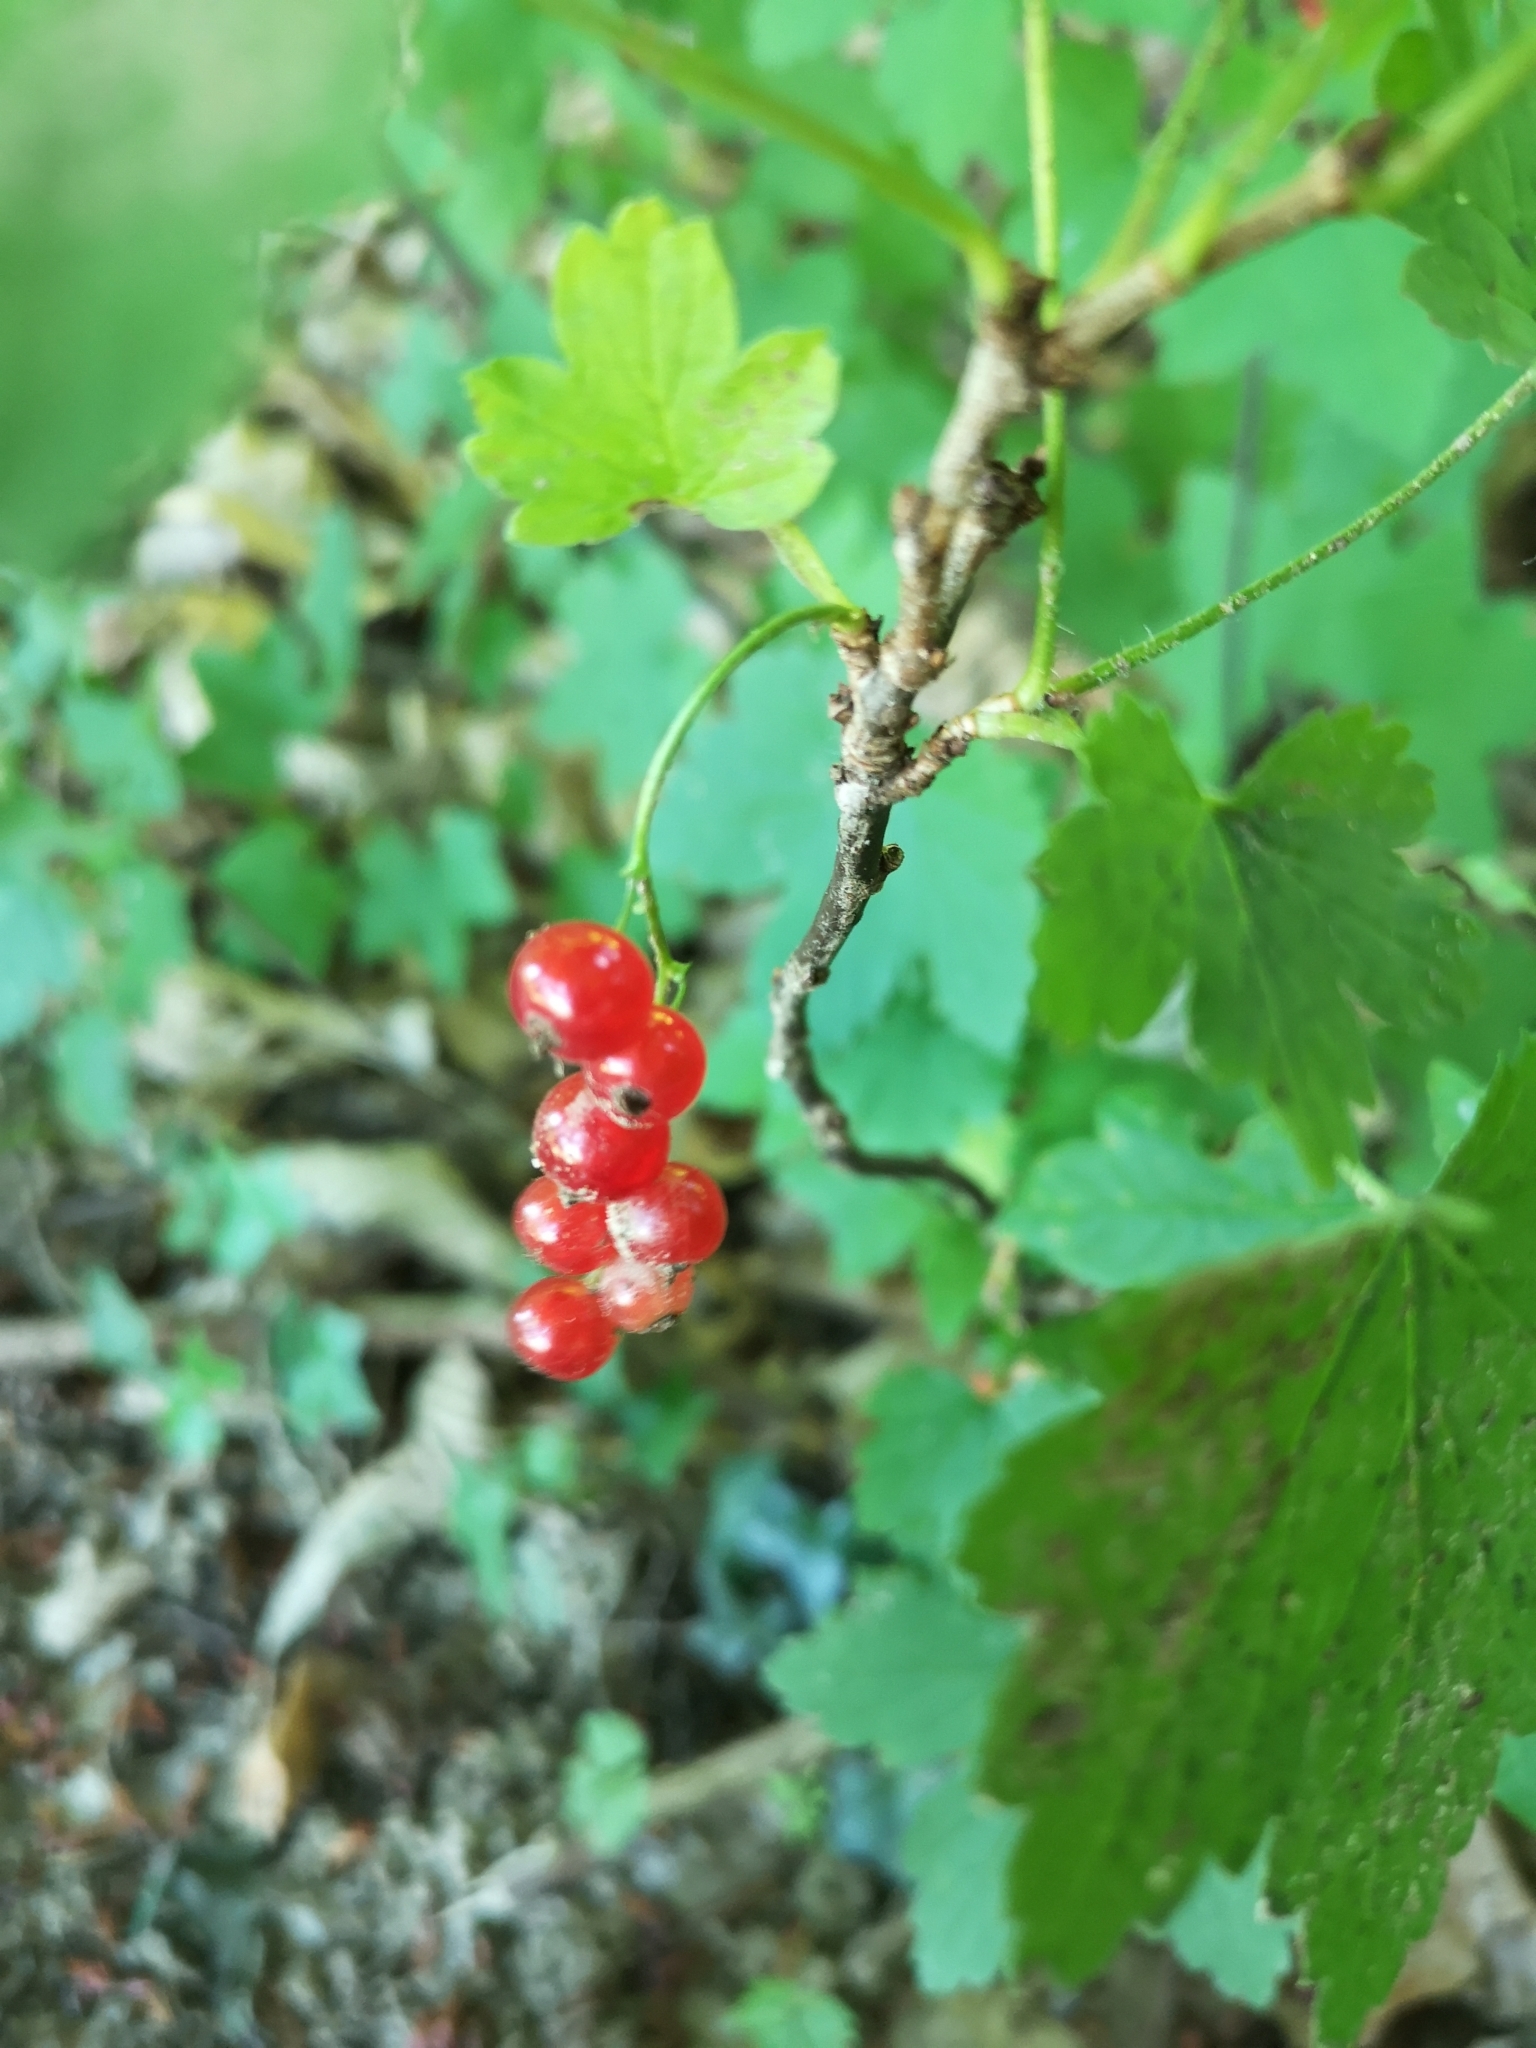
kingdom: Plantae
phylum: Tracheophyta
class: Magnoliopsida
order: Saxifragales
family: Grossulariaceae
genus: Ribes
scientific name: Ribes rubrum
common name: Red currant
